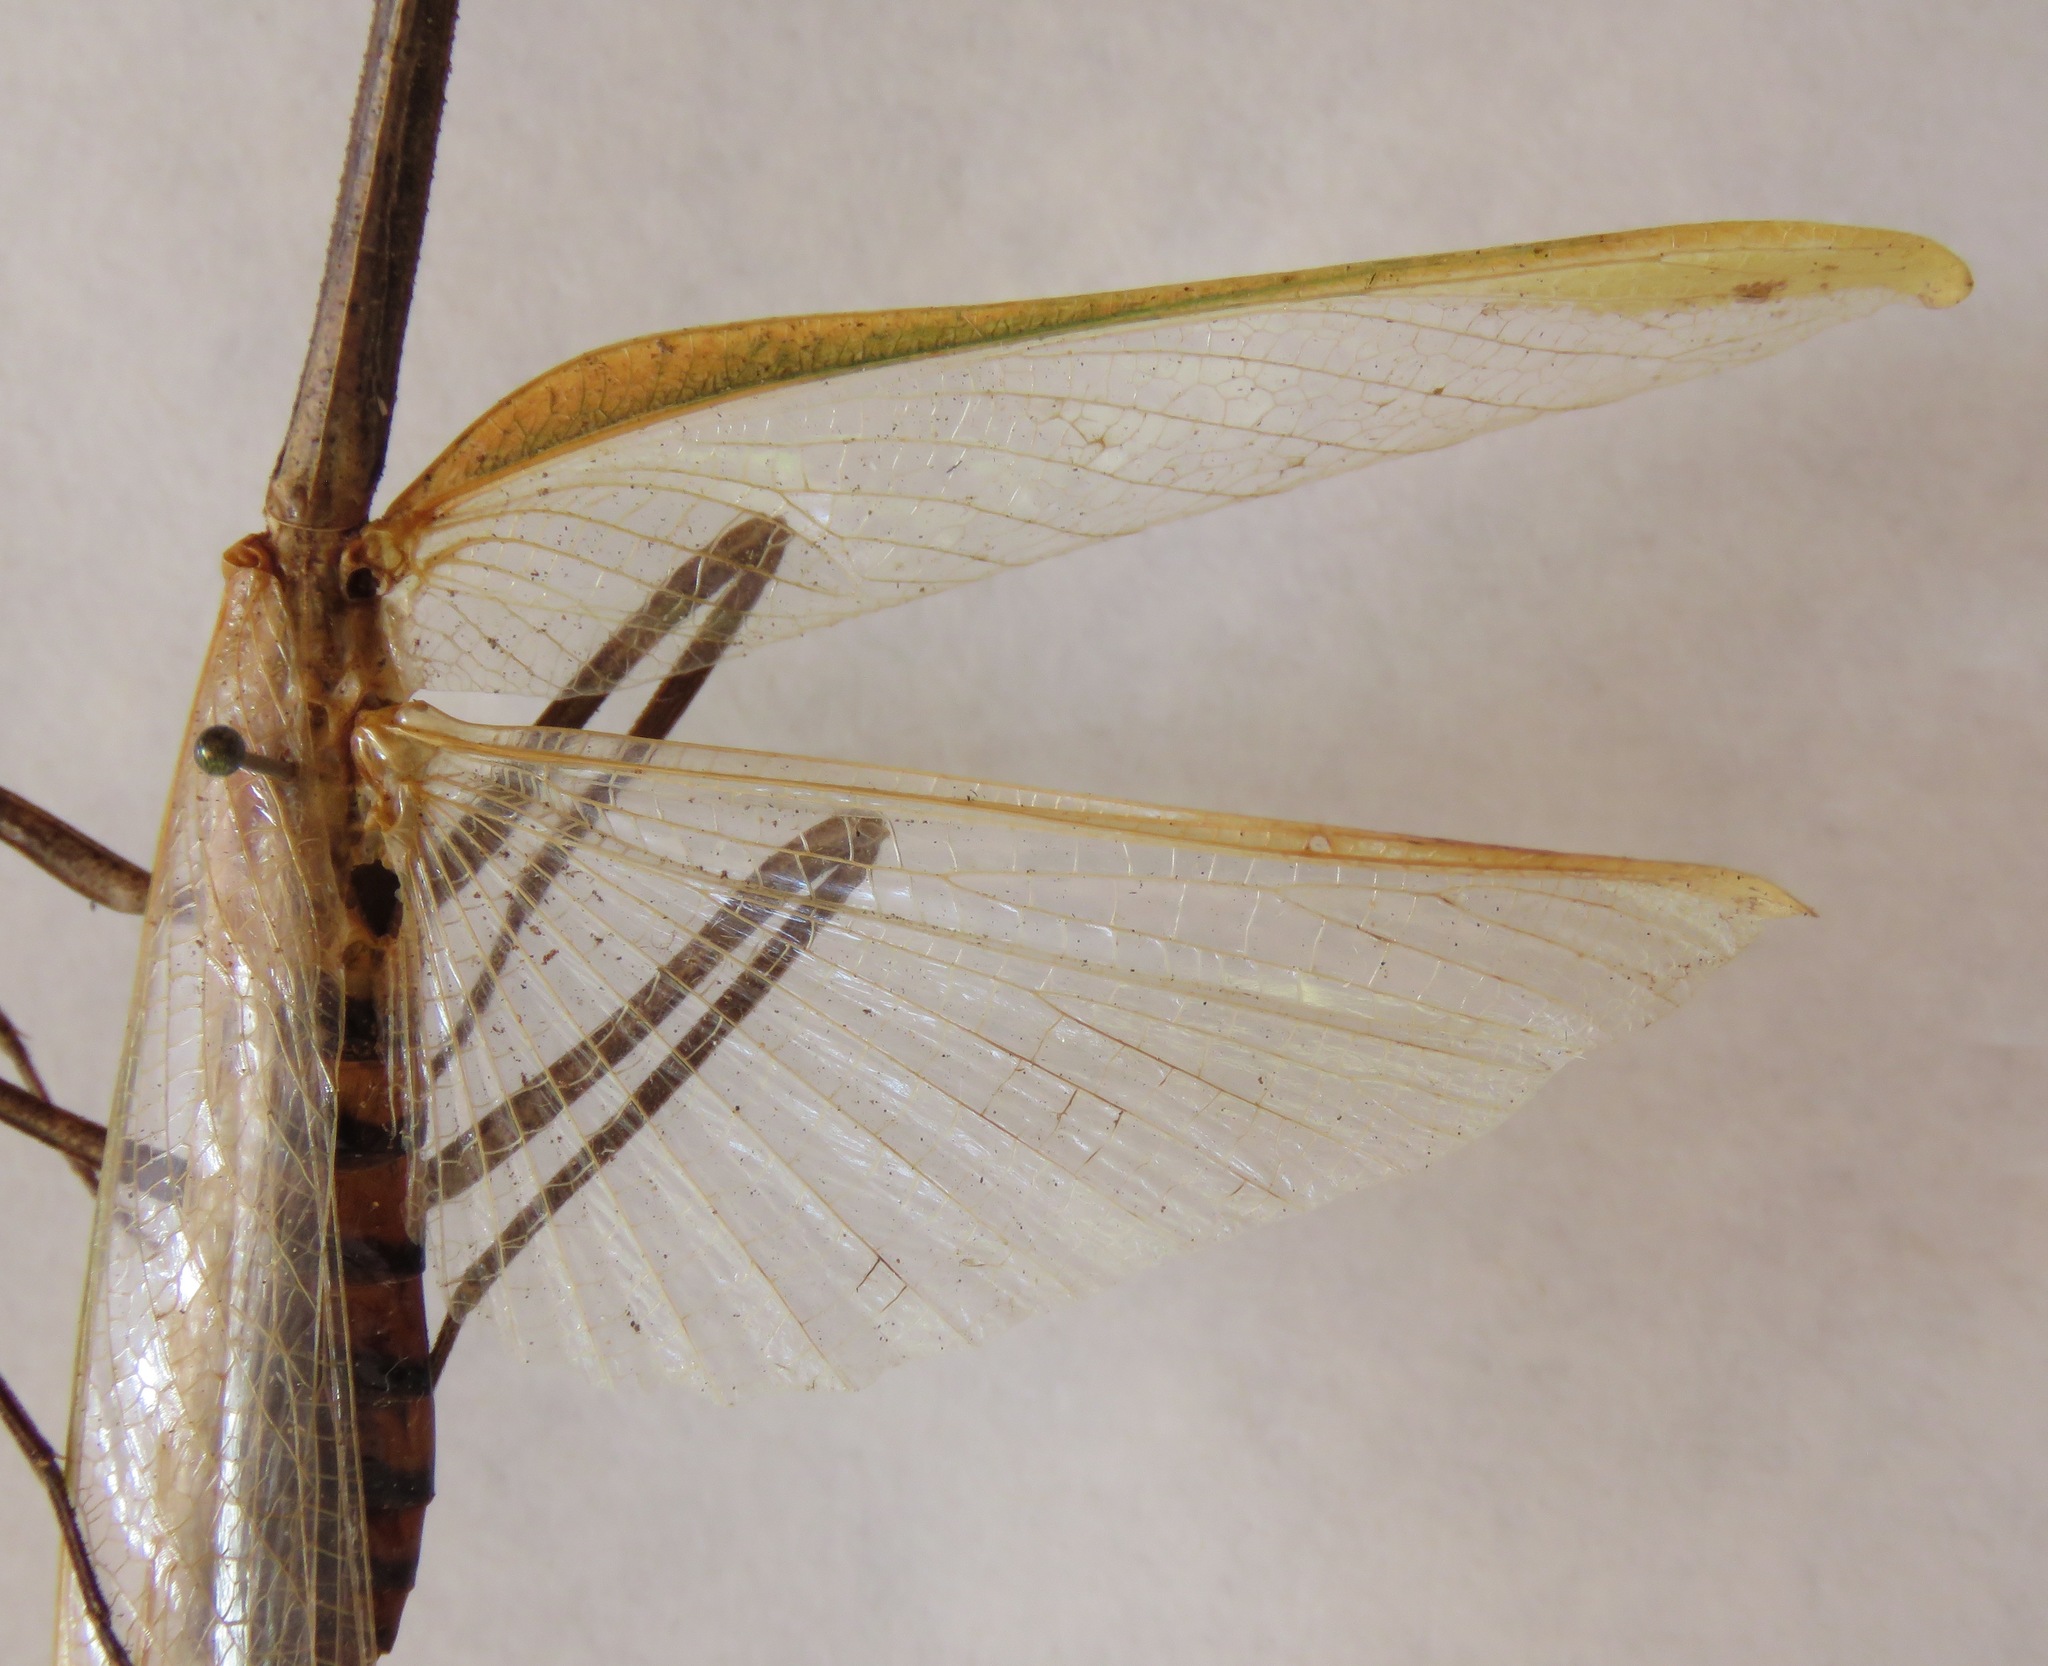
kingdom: Animalia
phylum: Arthropoda
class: Insecta
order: Mantodea
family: Mantidae
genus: Pseudovates
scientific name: Pseudovates chlorophaea
